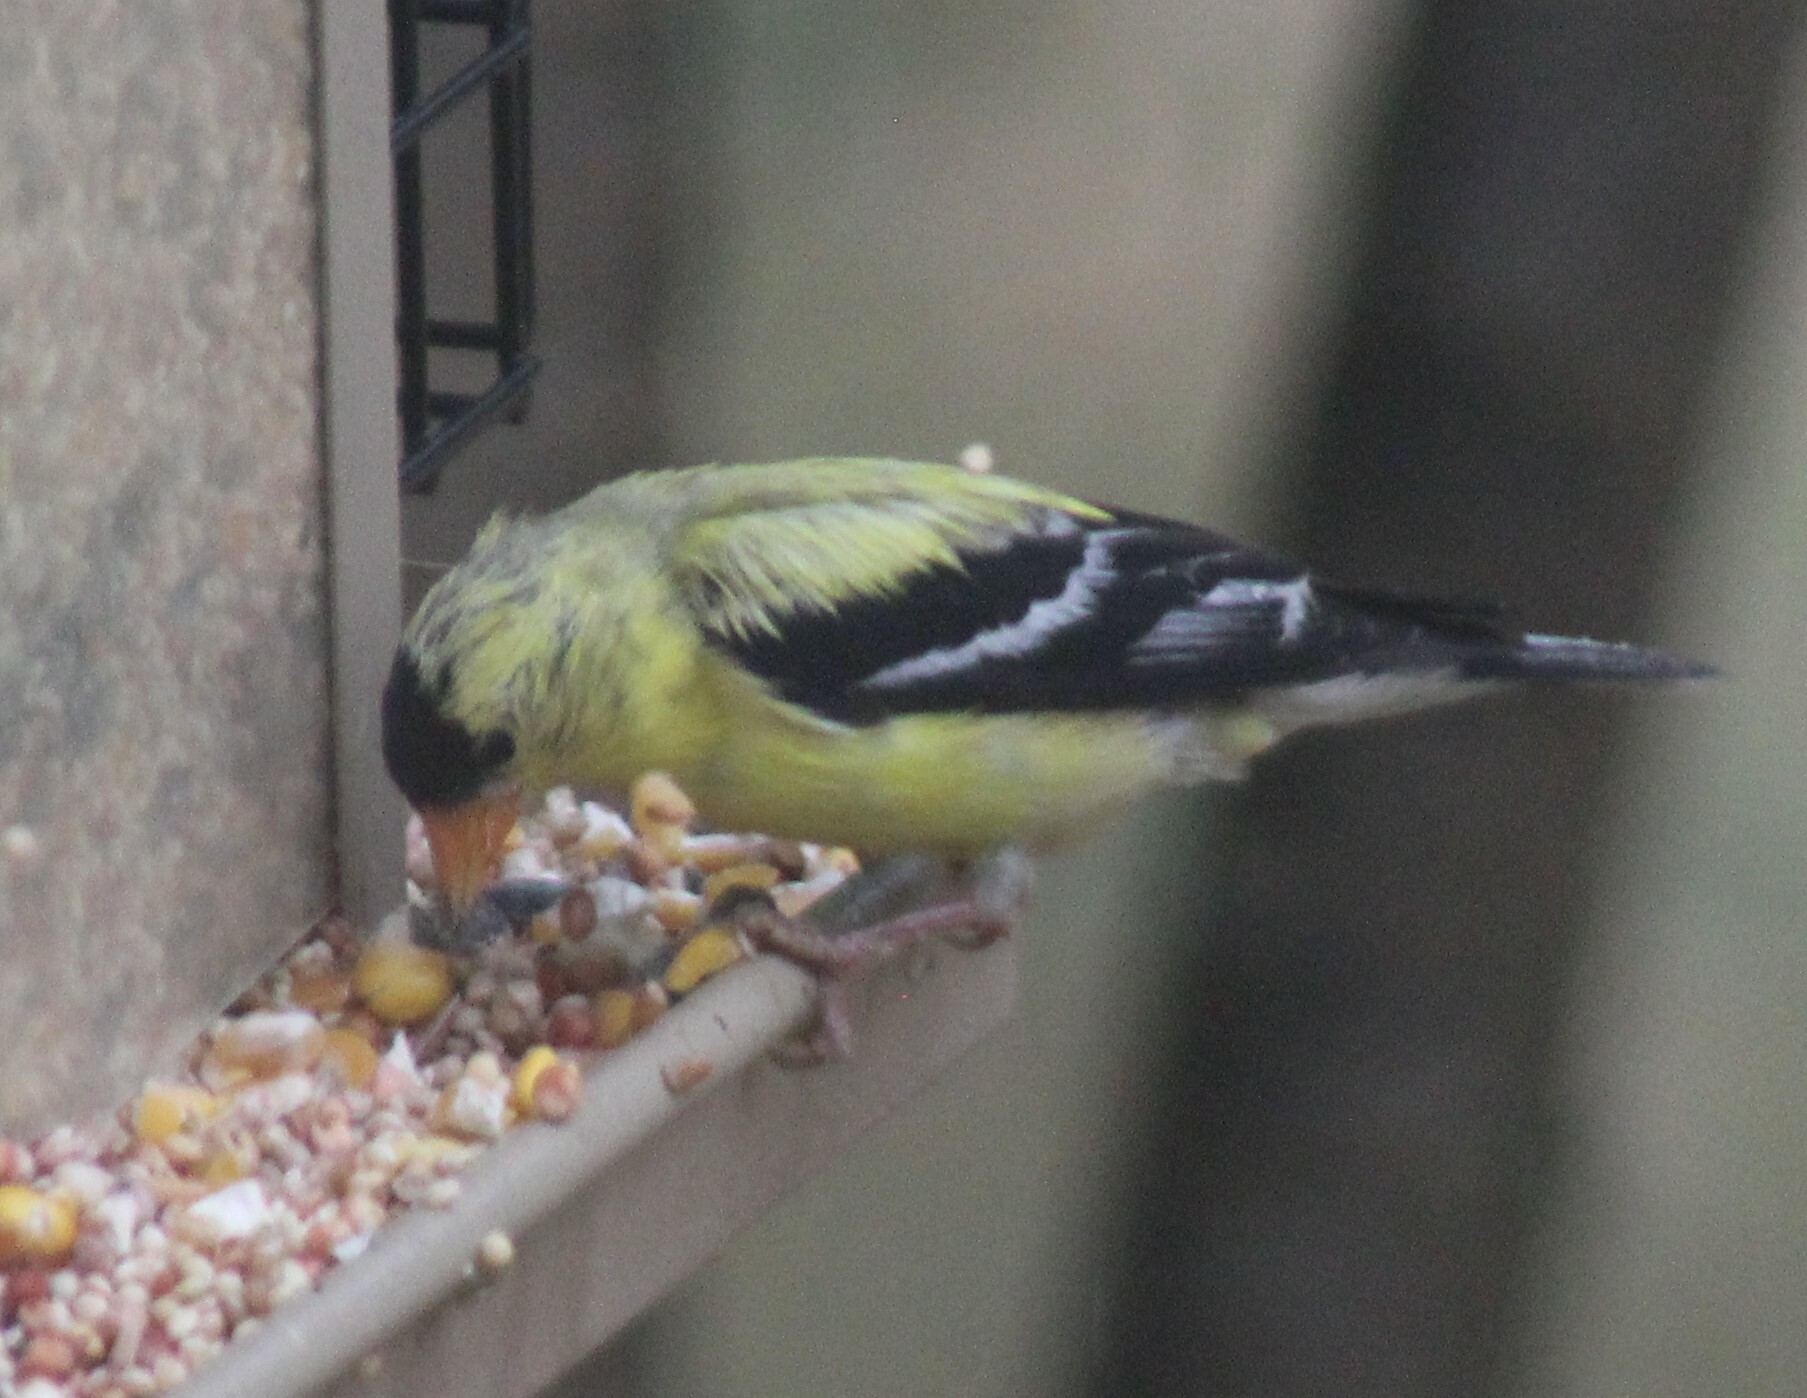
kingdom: Animalia
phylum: Chordata
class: Aves
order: Passeriformes
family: Fringillidae
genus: Spinus
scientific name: Spinus tristis
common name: American goldfinch
